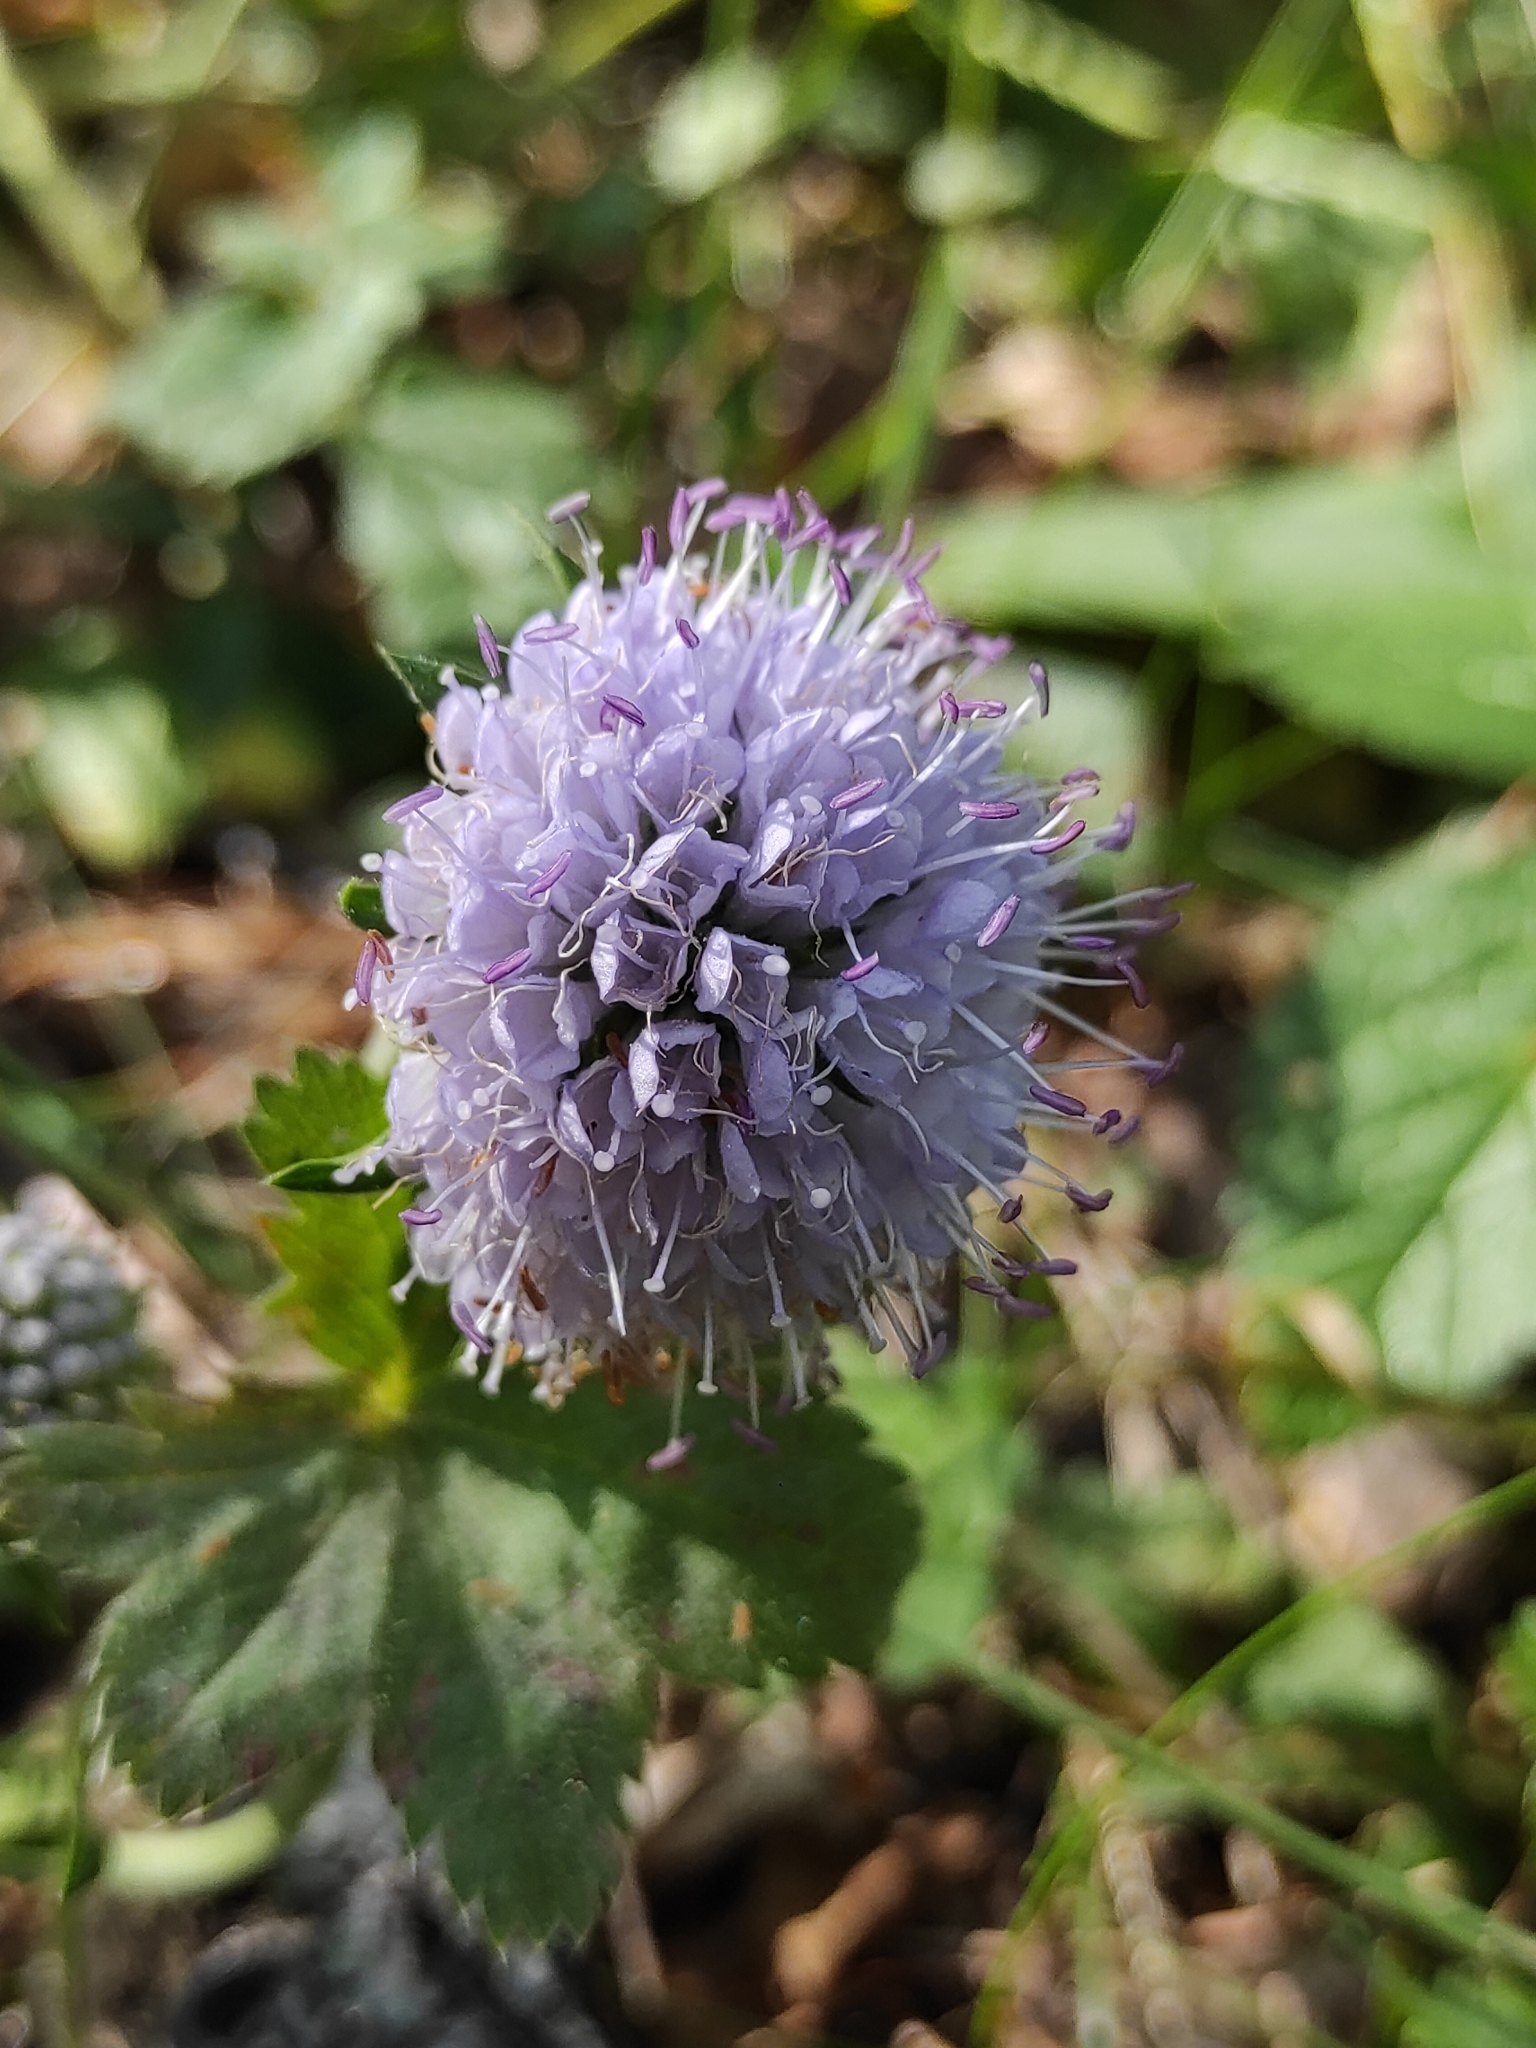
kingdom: Plantae
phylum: Tracheophyta
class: Magnoliopsida
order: Dipsacales
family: Caprifoliaceae
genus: Succisa
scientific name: Succisa pratensis
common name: Devil's-bit
